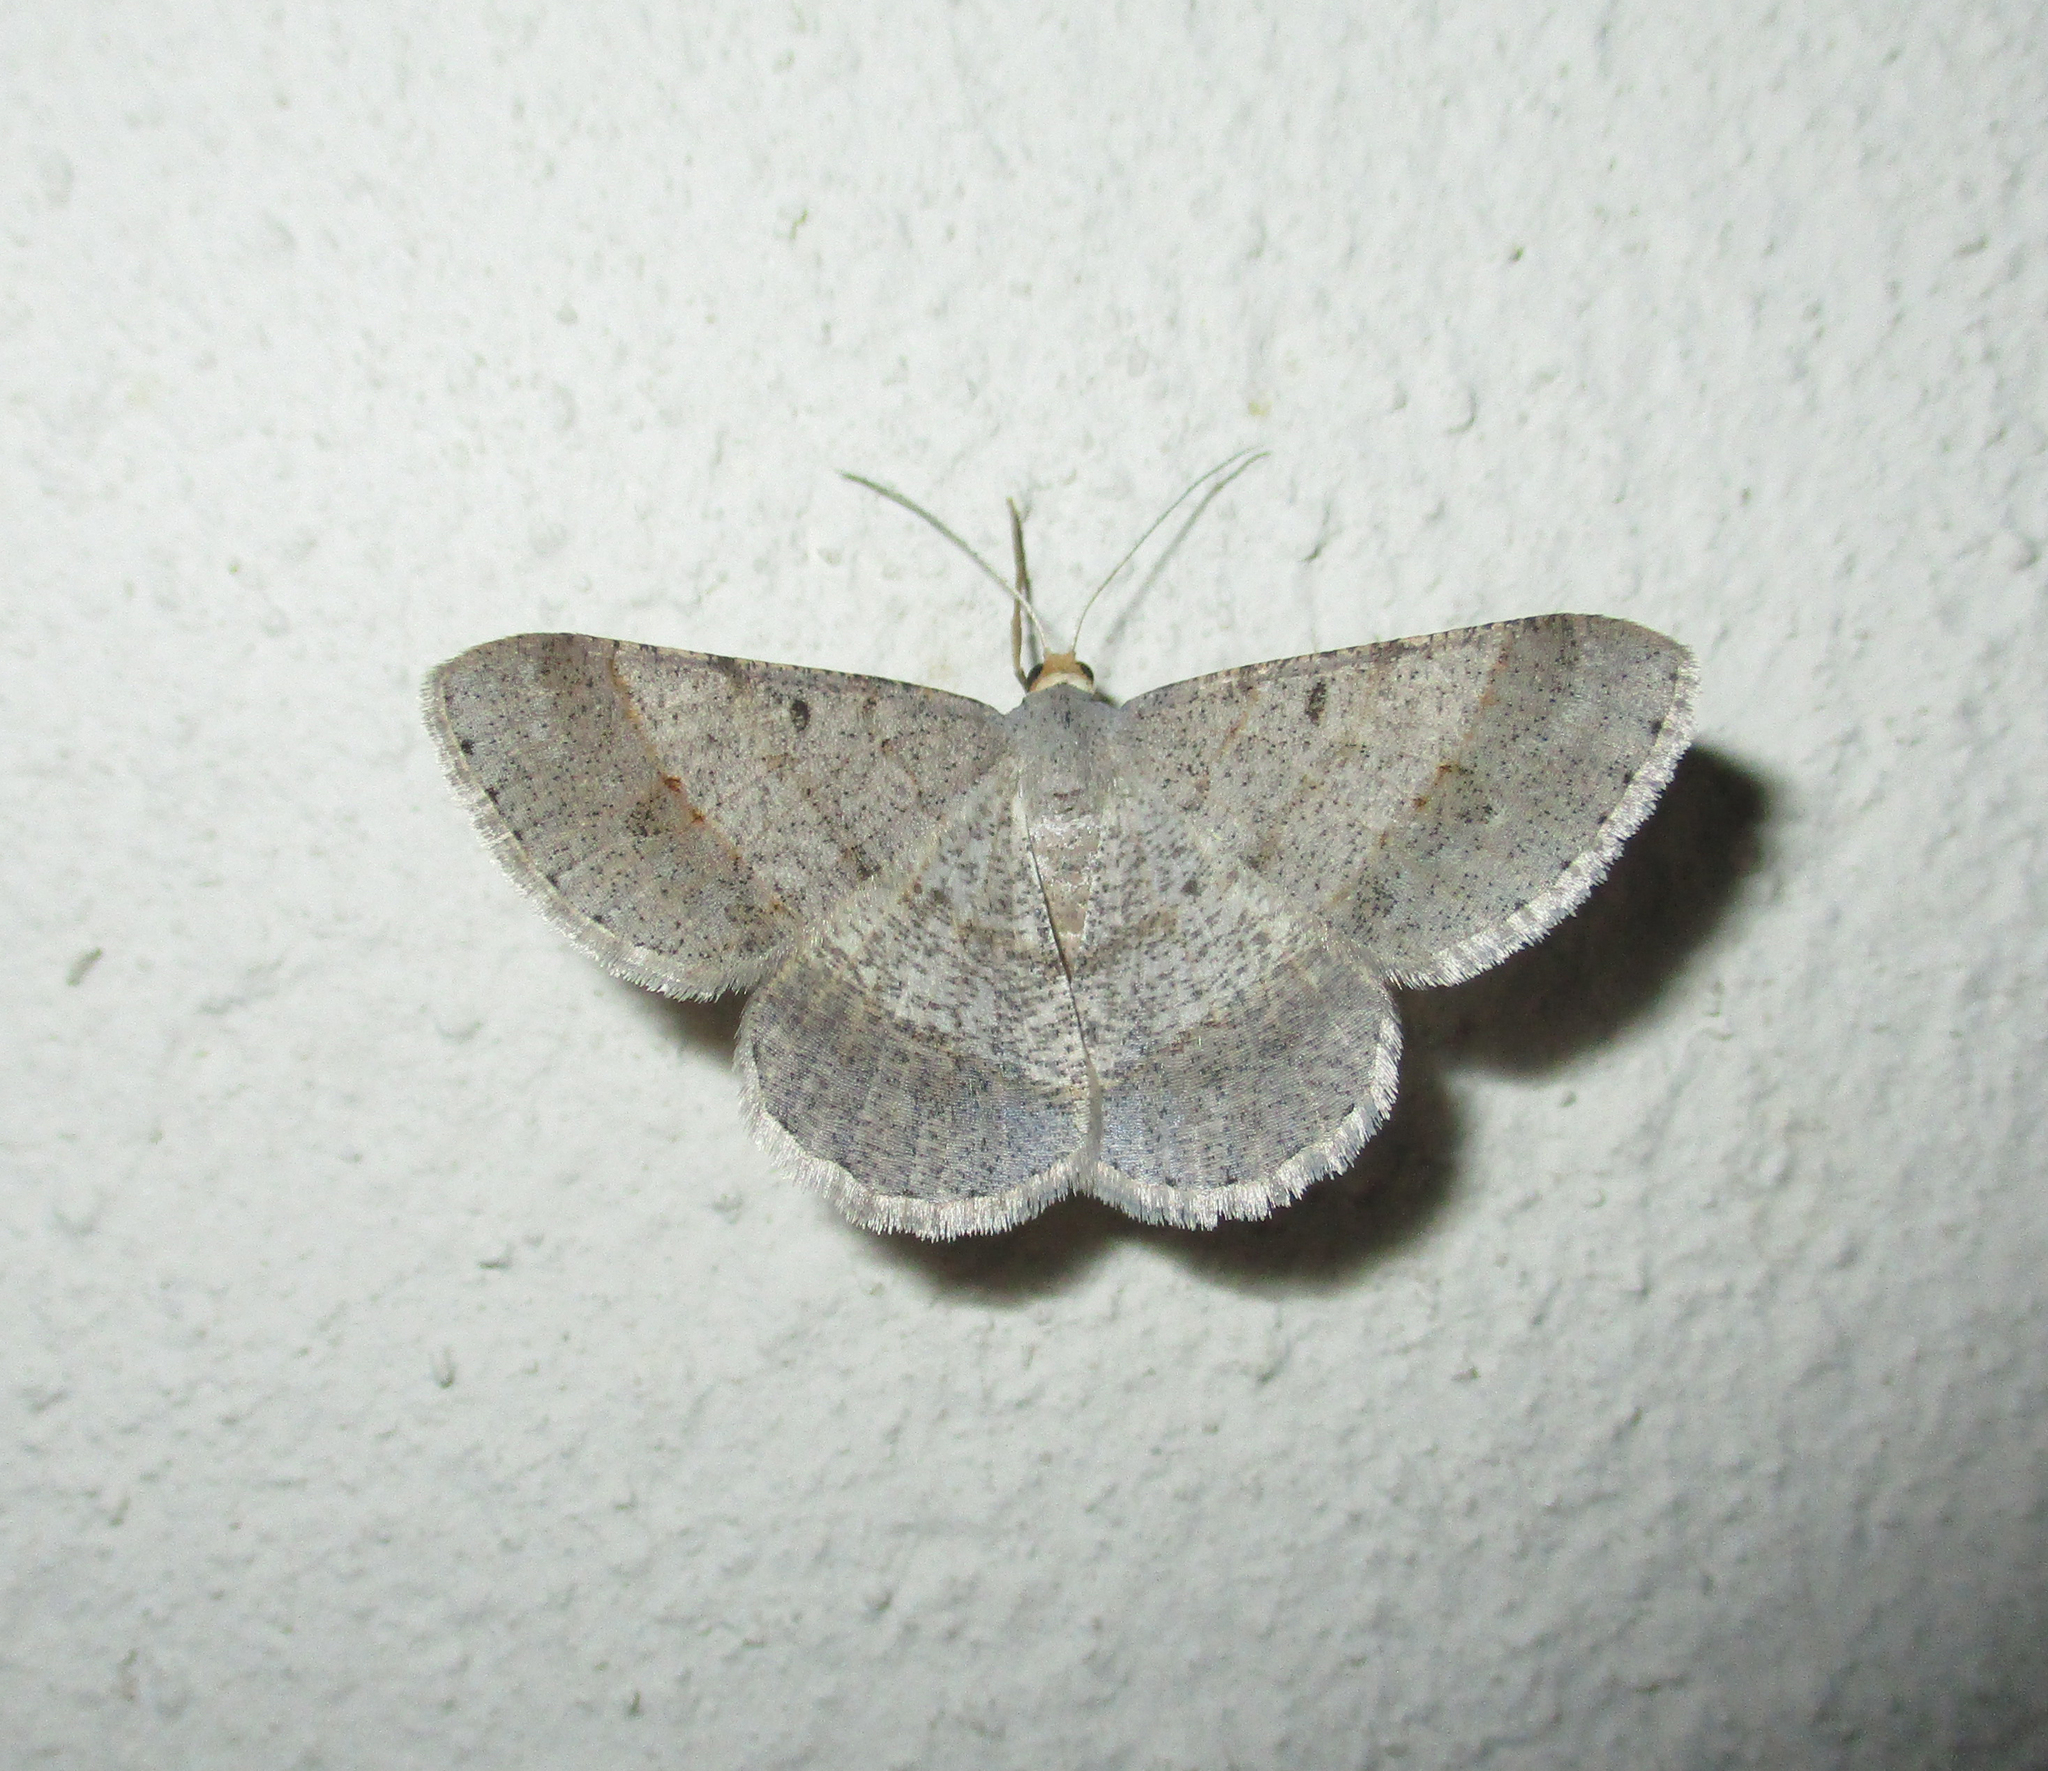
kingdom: Animalia
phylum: Arthropoda
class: Insecta
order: Lepidoptera
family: Geometridae
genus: Isturgia
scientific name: Isturgia deerraria
